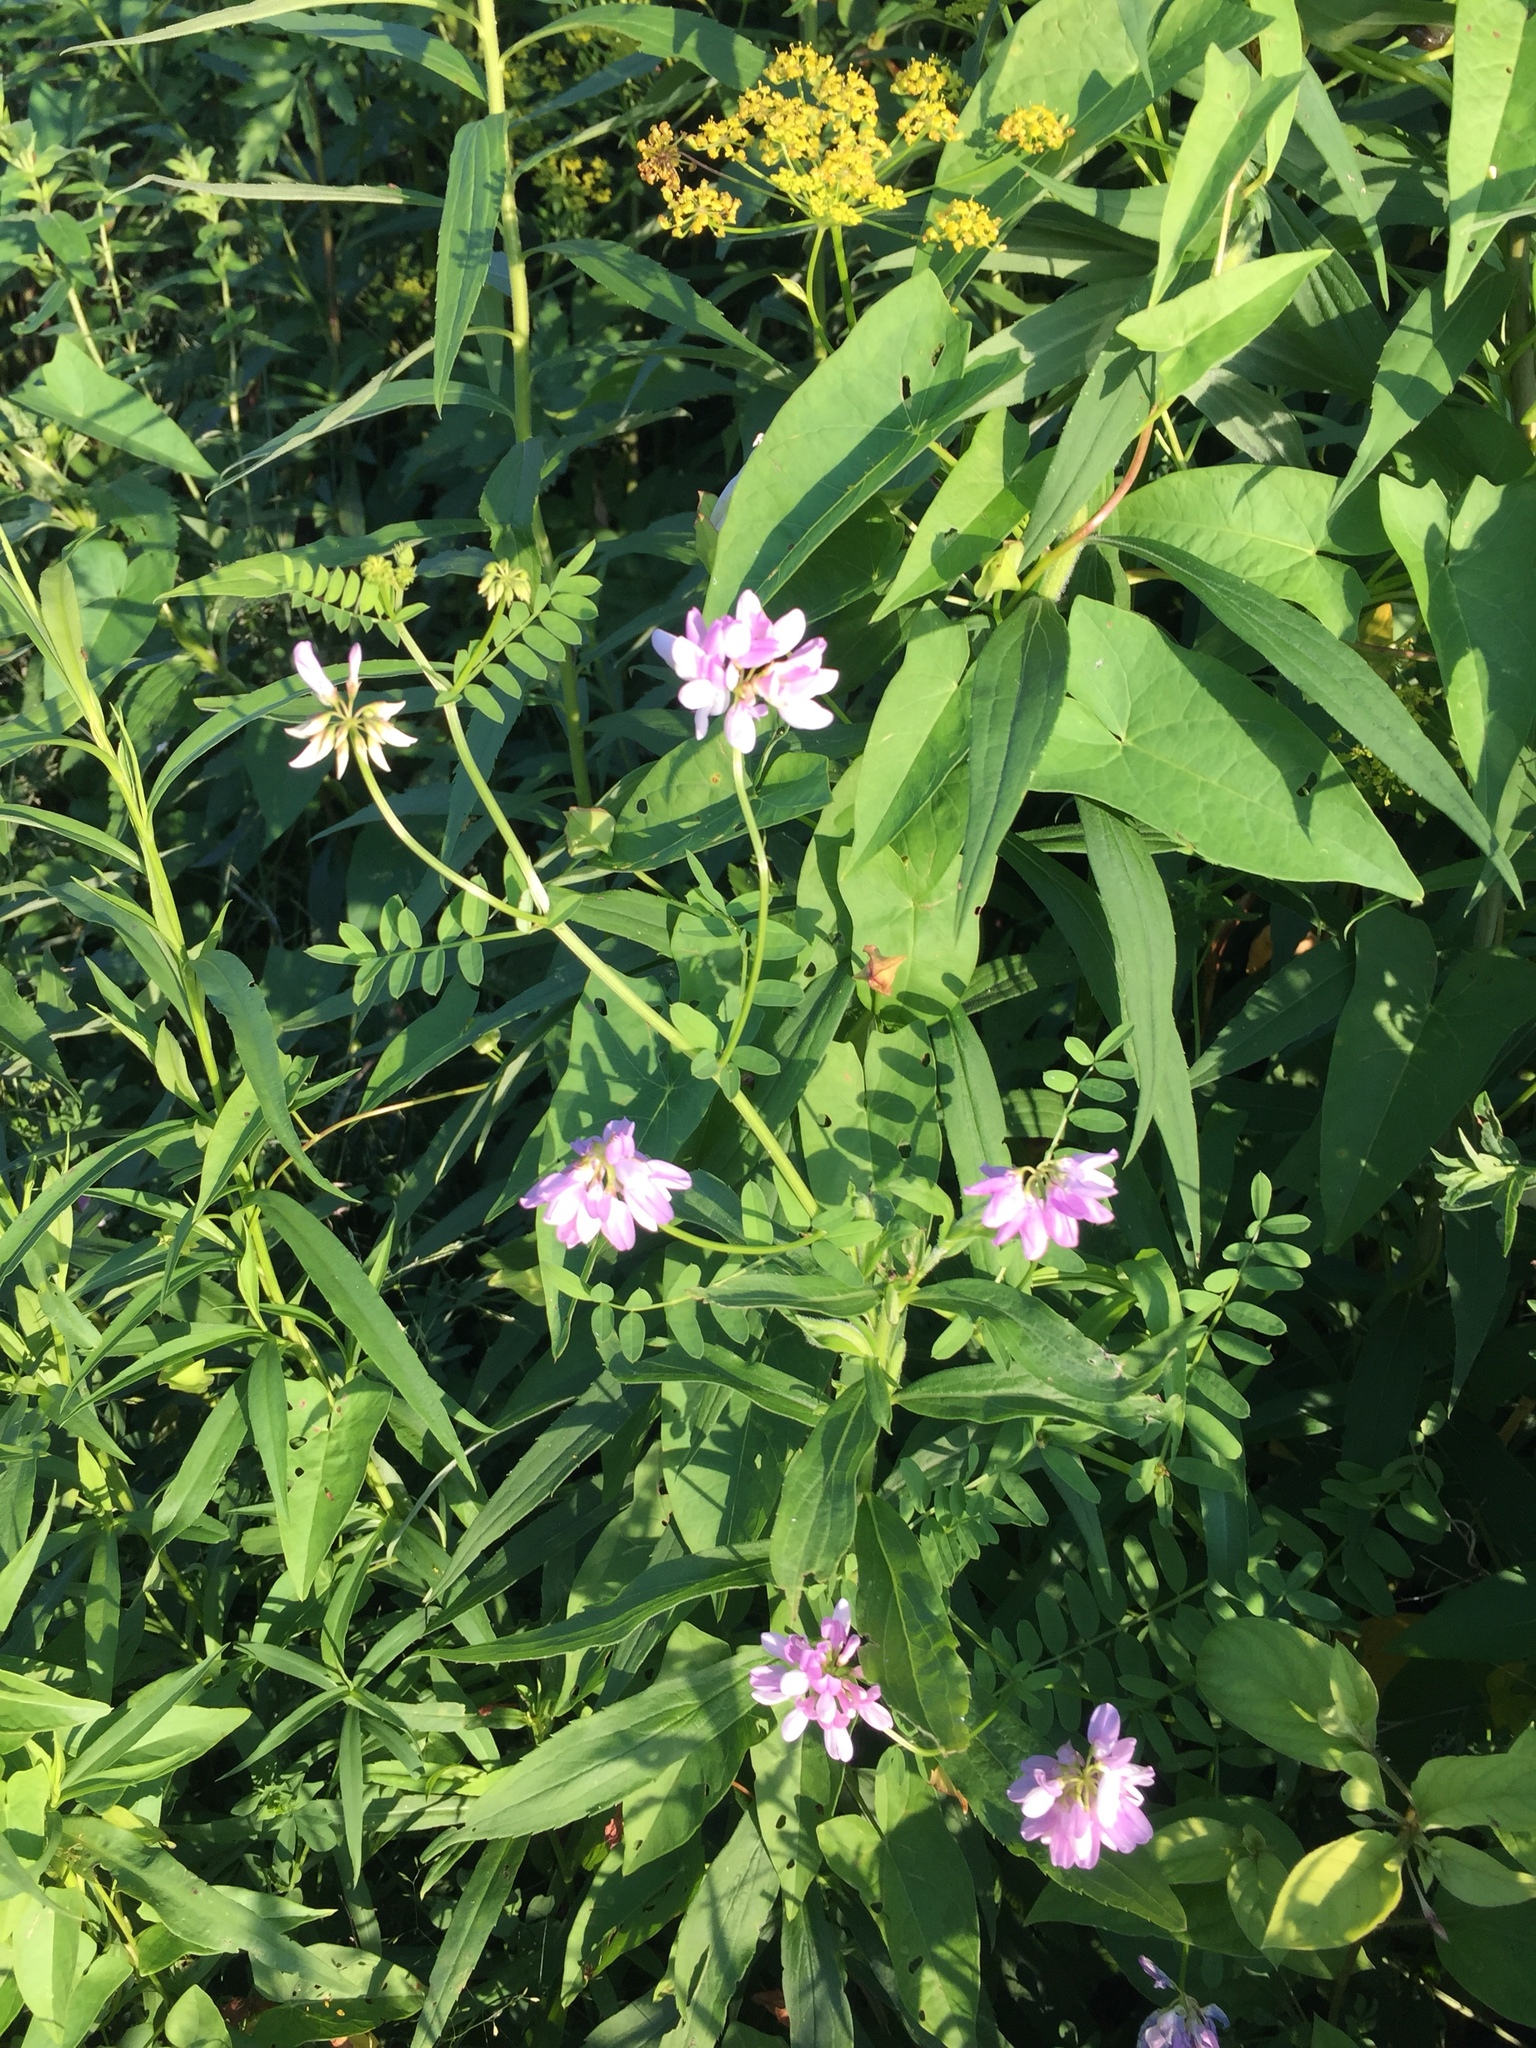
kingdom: Plantae
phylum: Tracheophyta
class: Magnoliopsida
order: Fabales
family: Fabaceae
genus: Coronilla
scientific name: Coronilla varia
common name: Crownvetch
